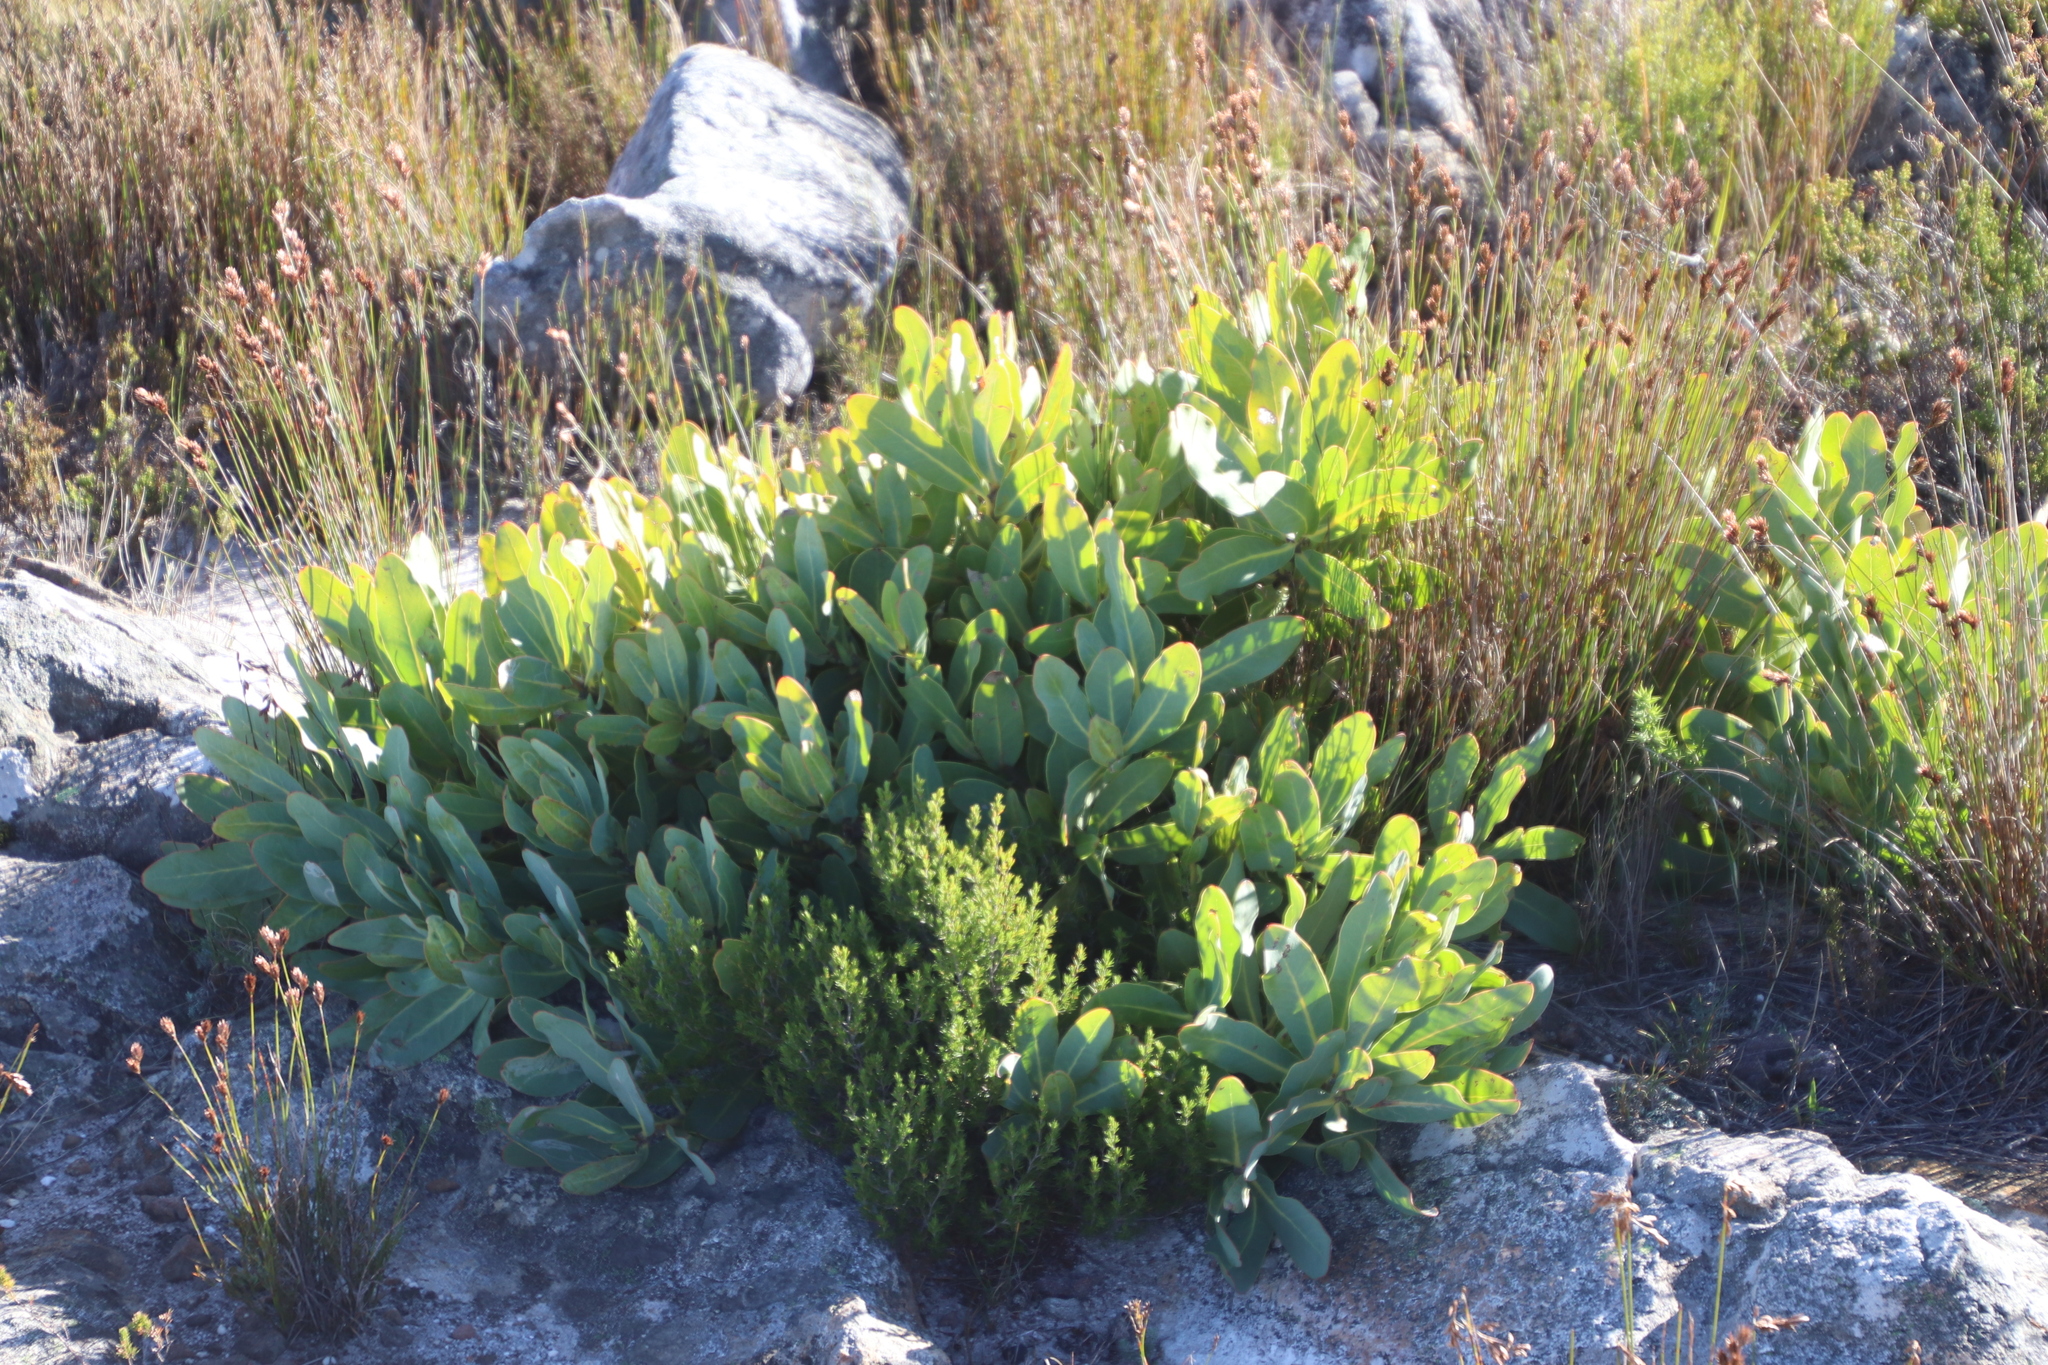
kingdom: Plantae
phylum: Tracheophyta
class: Magnoliopsida
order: Proteales
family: Proteaceae
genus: Protea
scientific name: Protea magnifica
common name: Bearded sugarbush
